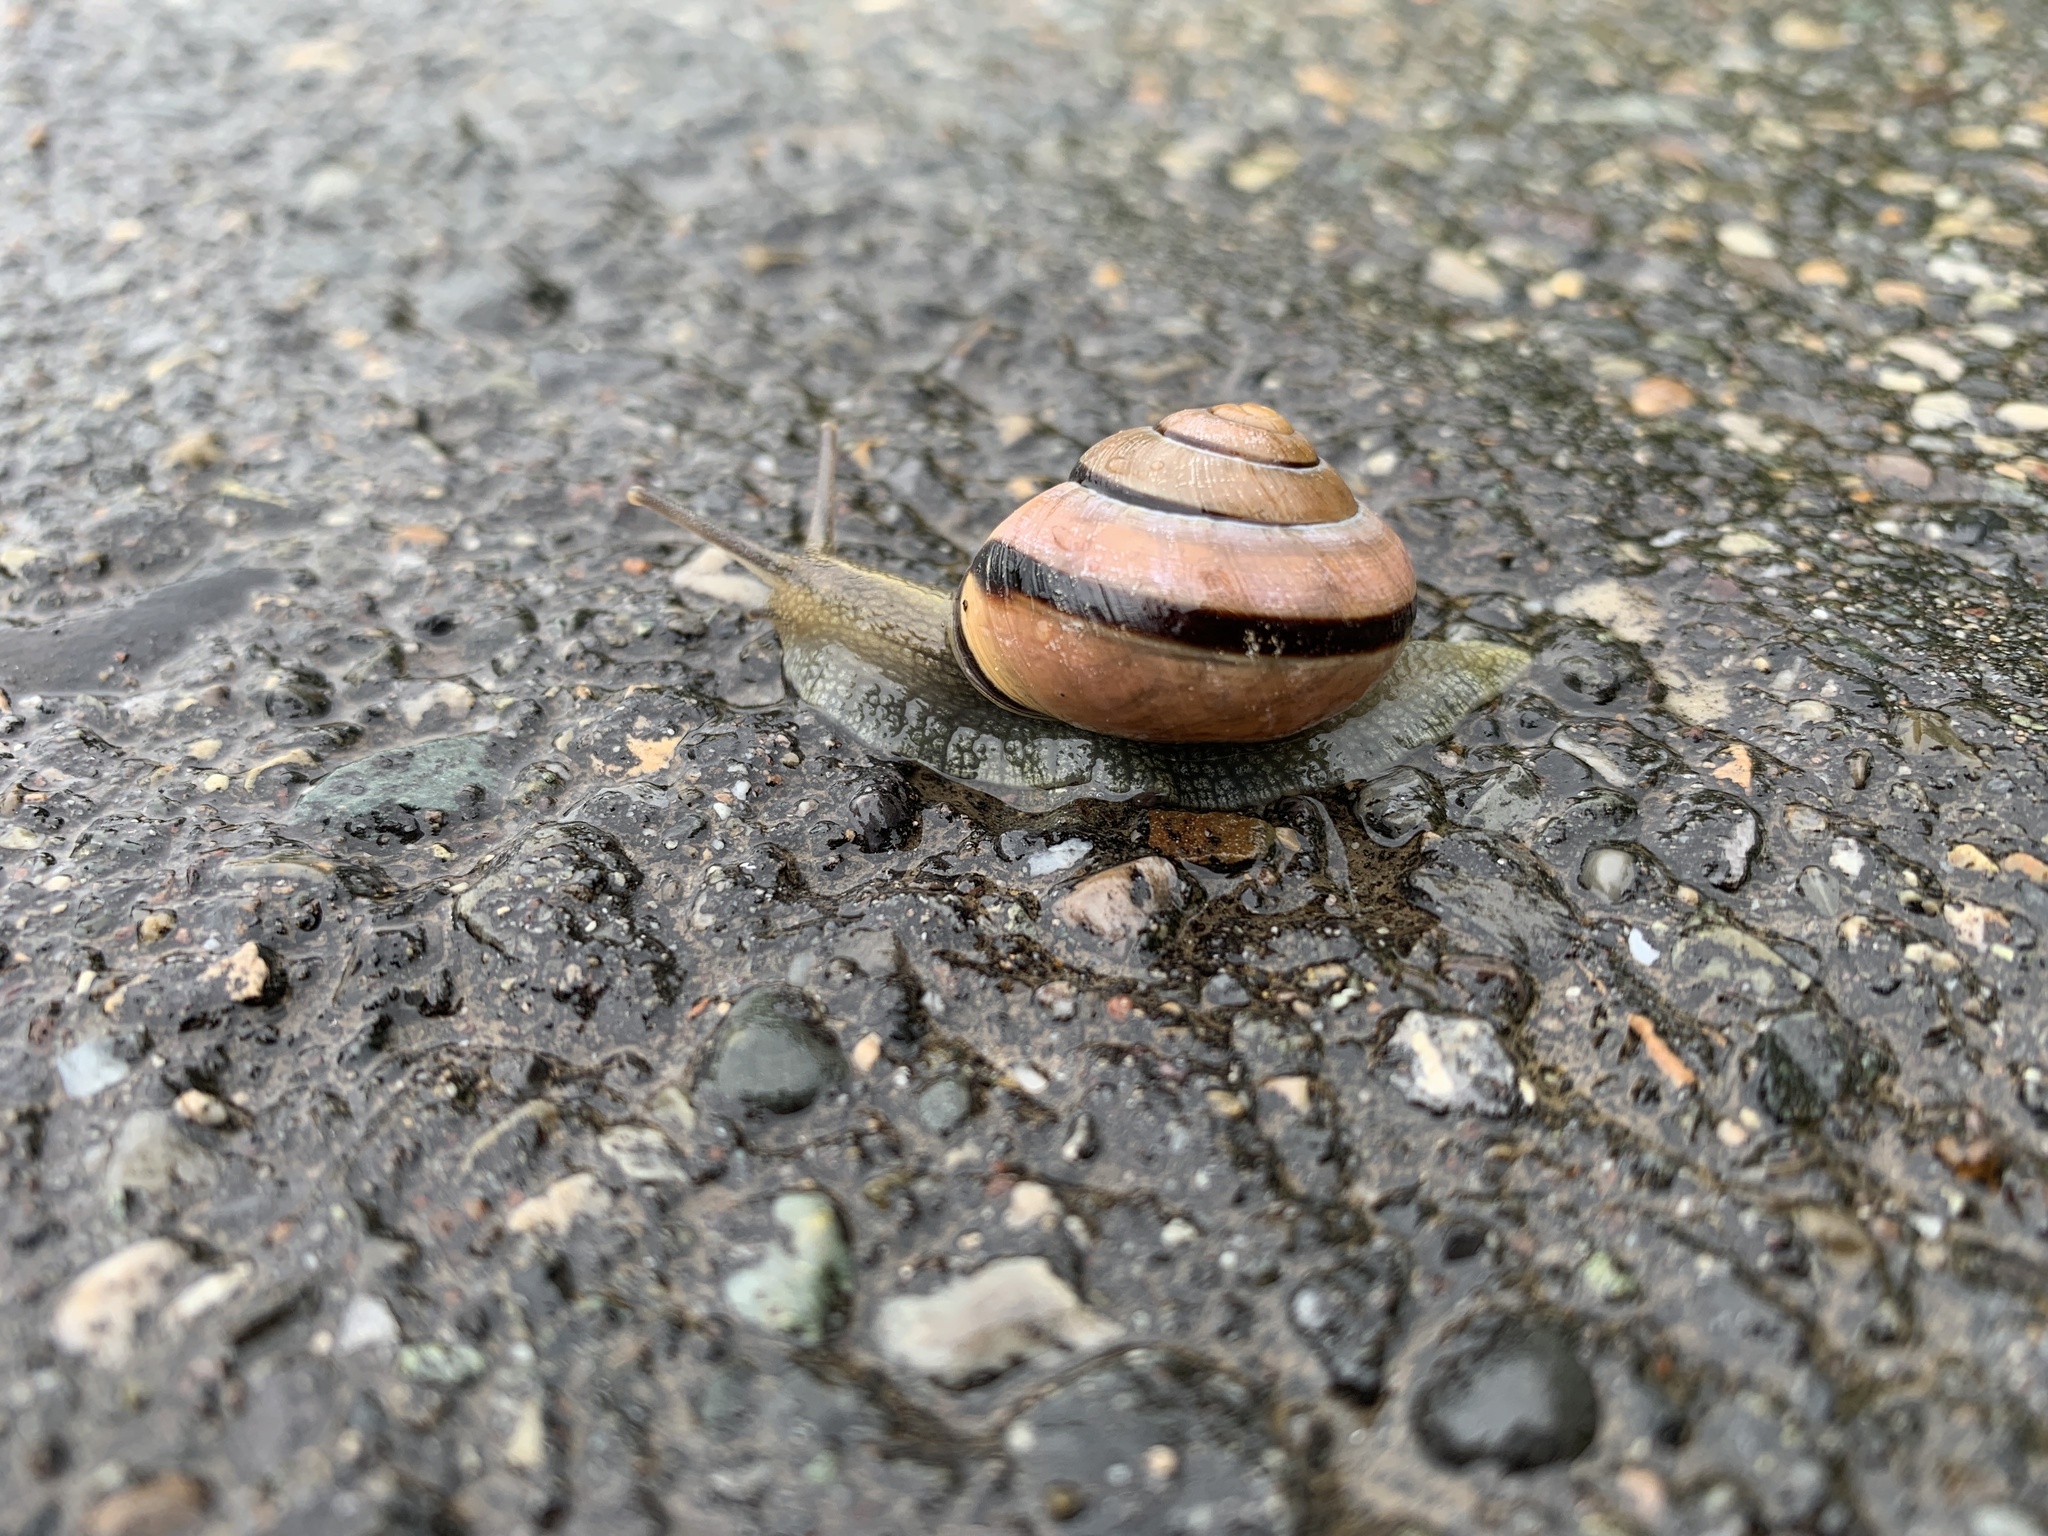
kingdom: Animalia
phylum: Mollusca
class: Gastropoda
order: Stylommatophora
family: Helicidae
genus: Cepaea
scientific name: Cepaea nemoralis
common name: Grovesnail
